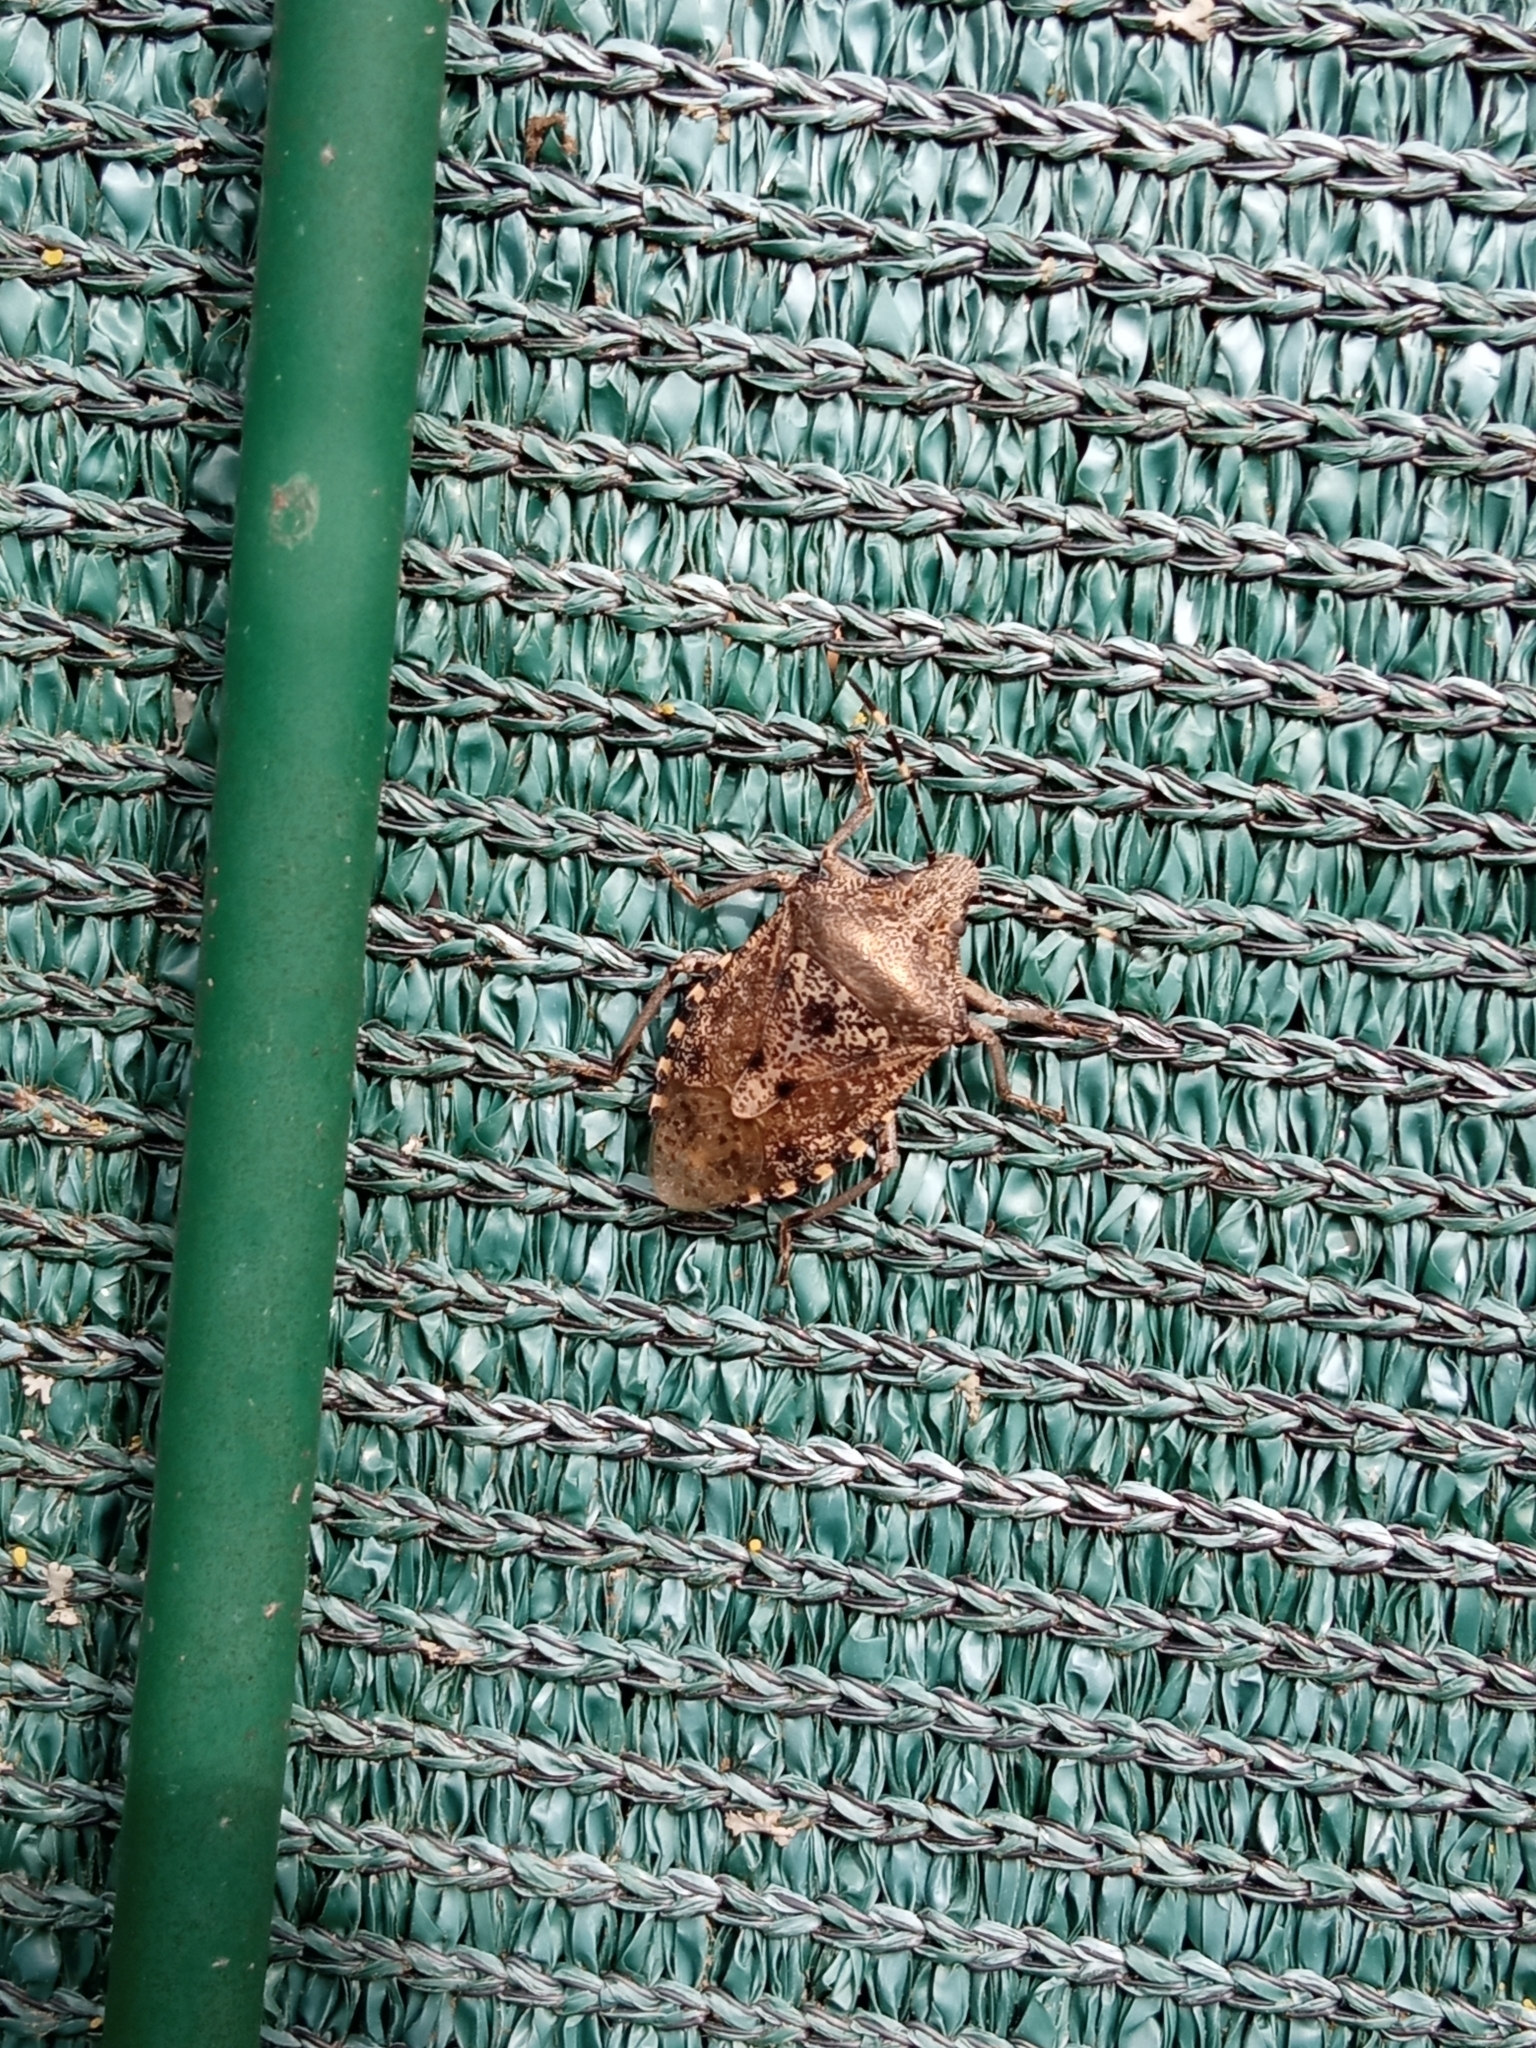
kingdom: Animalia
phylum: Arthropoda
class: Insecta
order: Hemiptera
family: Pentatomidae
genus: Rhaphigaster
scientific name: Rhaphigaster nebulosa
